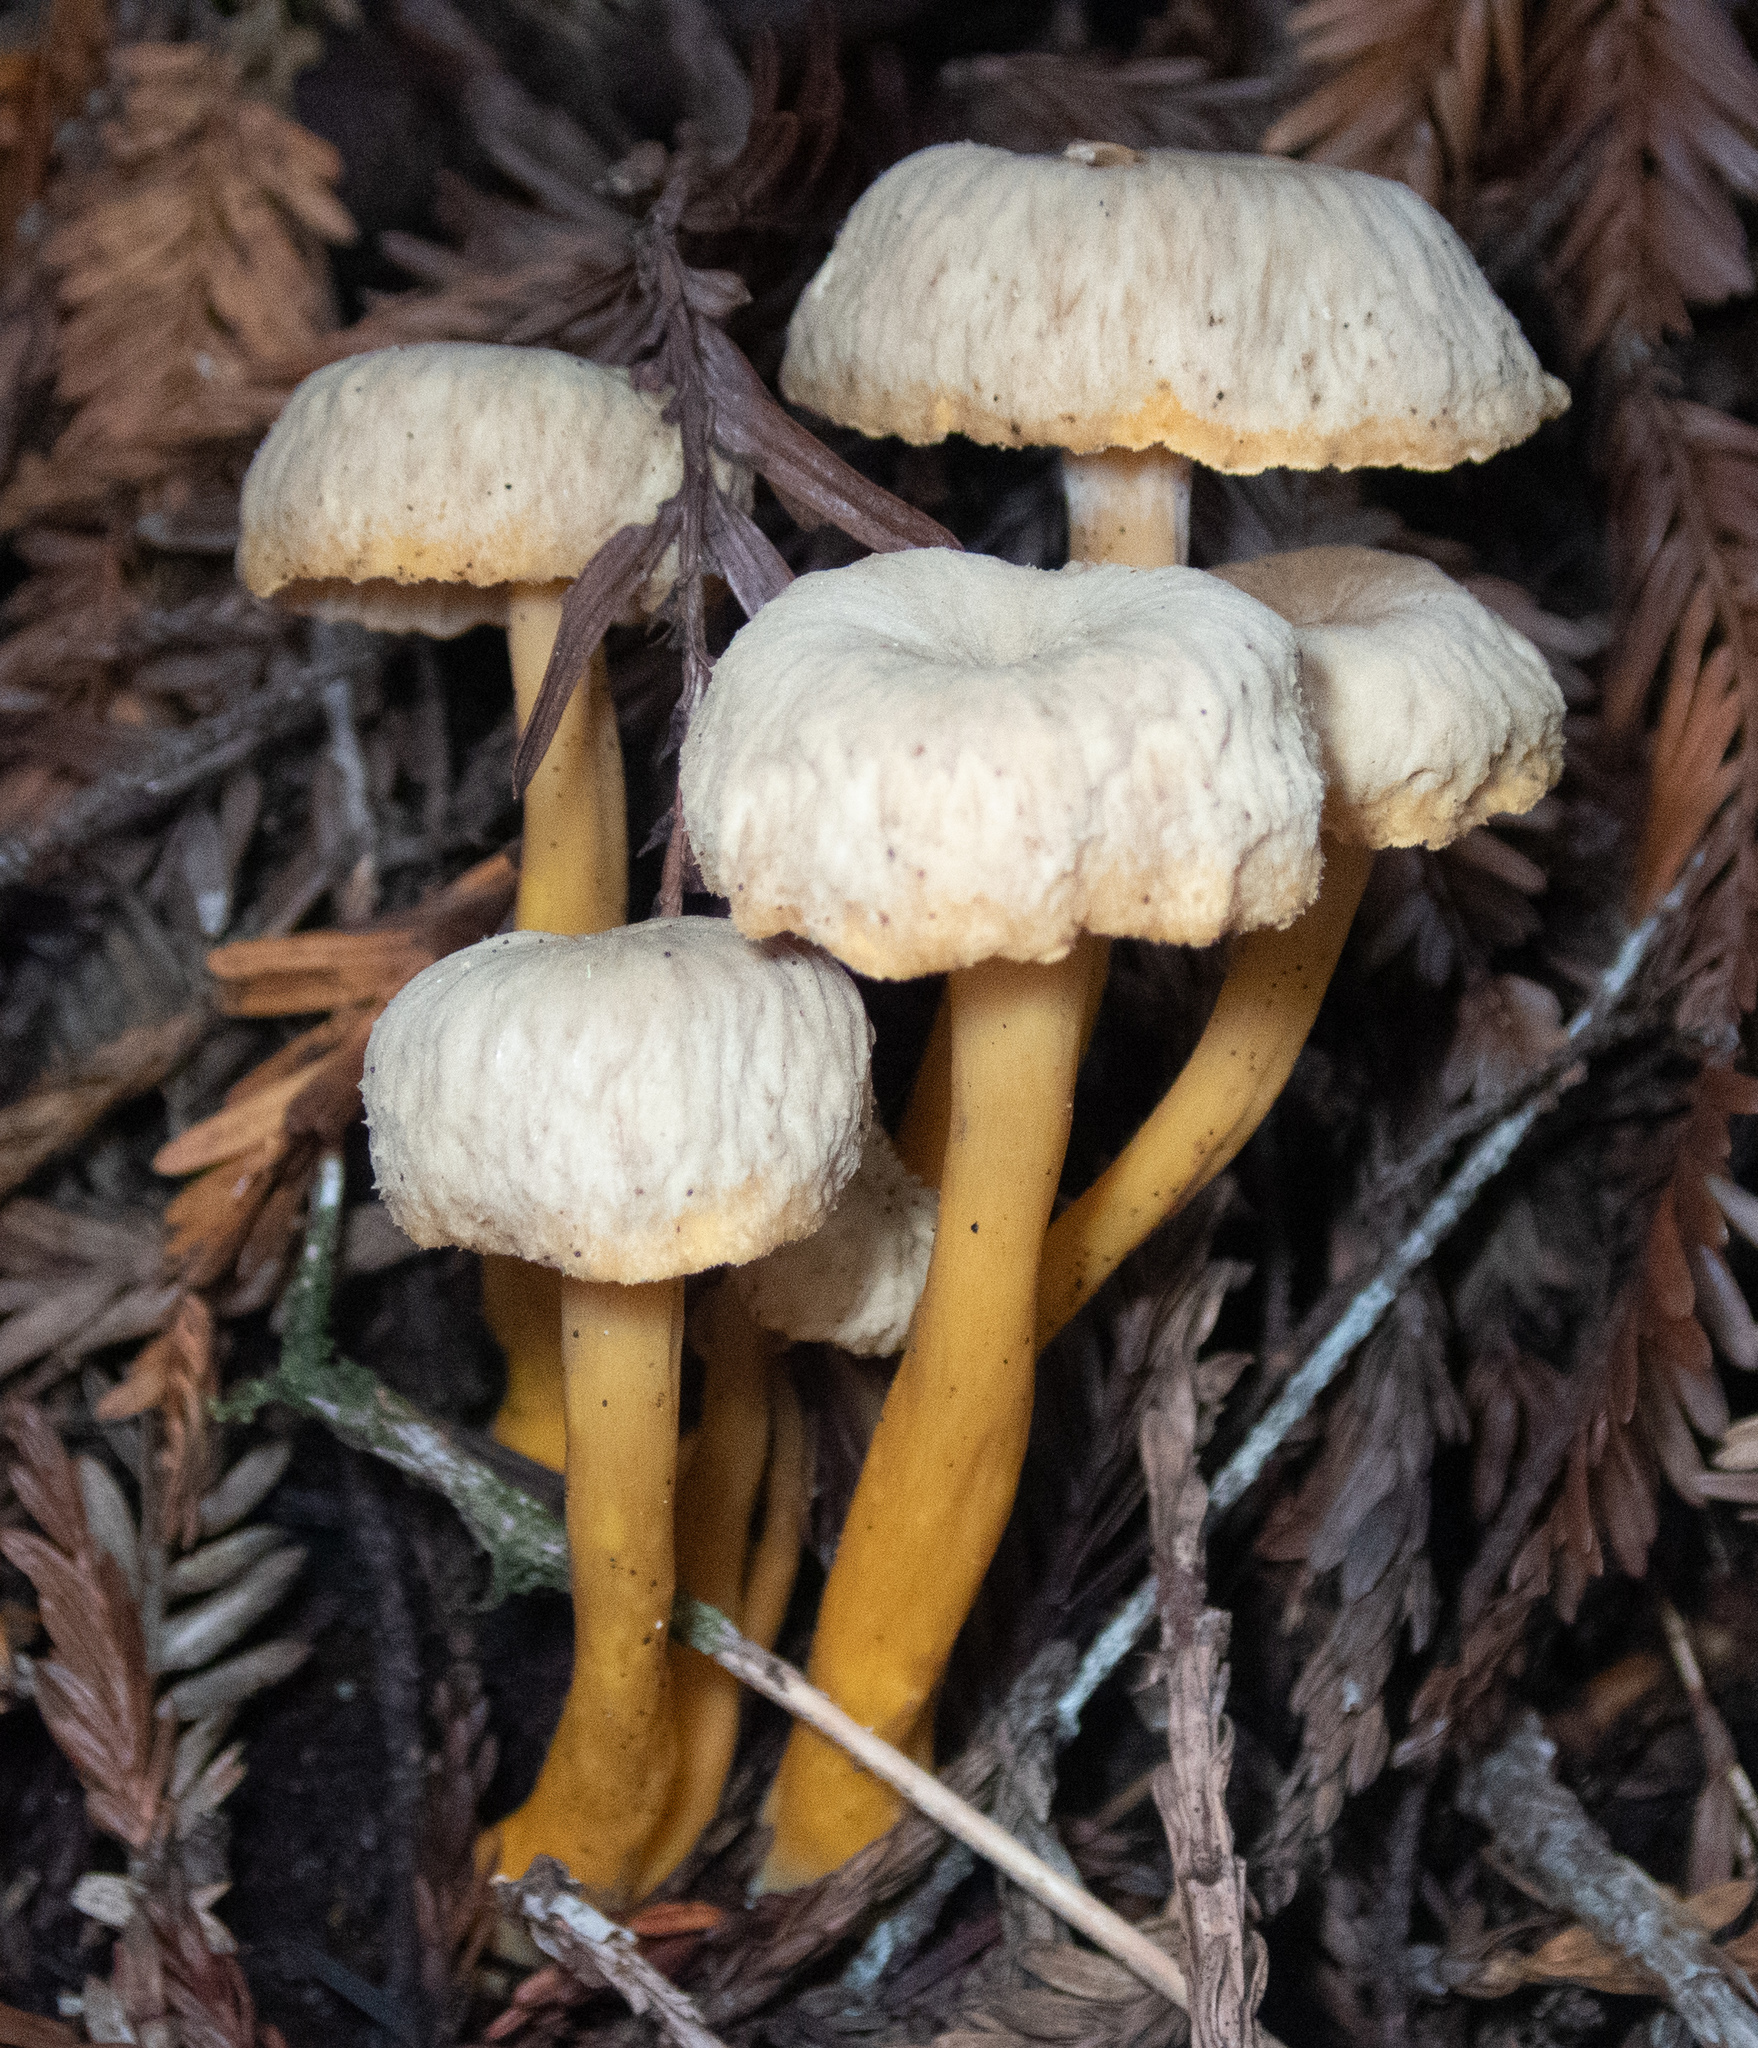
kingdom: Fungi
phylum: Basidiomycota
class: Agaricomycetes
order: Cantharellales
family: Hydnaceae
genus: Craterellus
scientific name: Craterellus tubaeformis
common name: Yellowfoot
